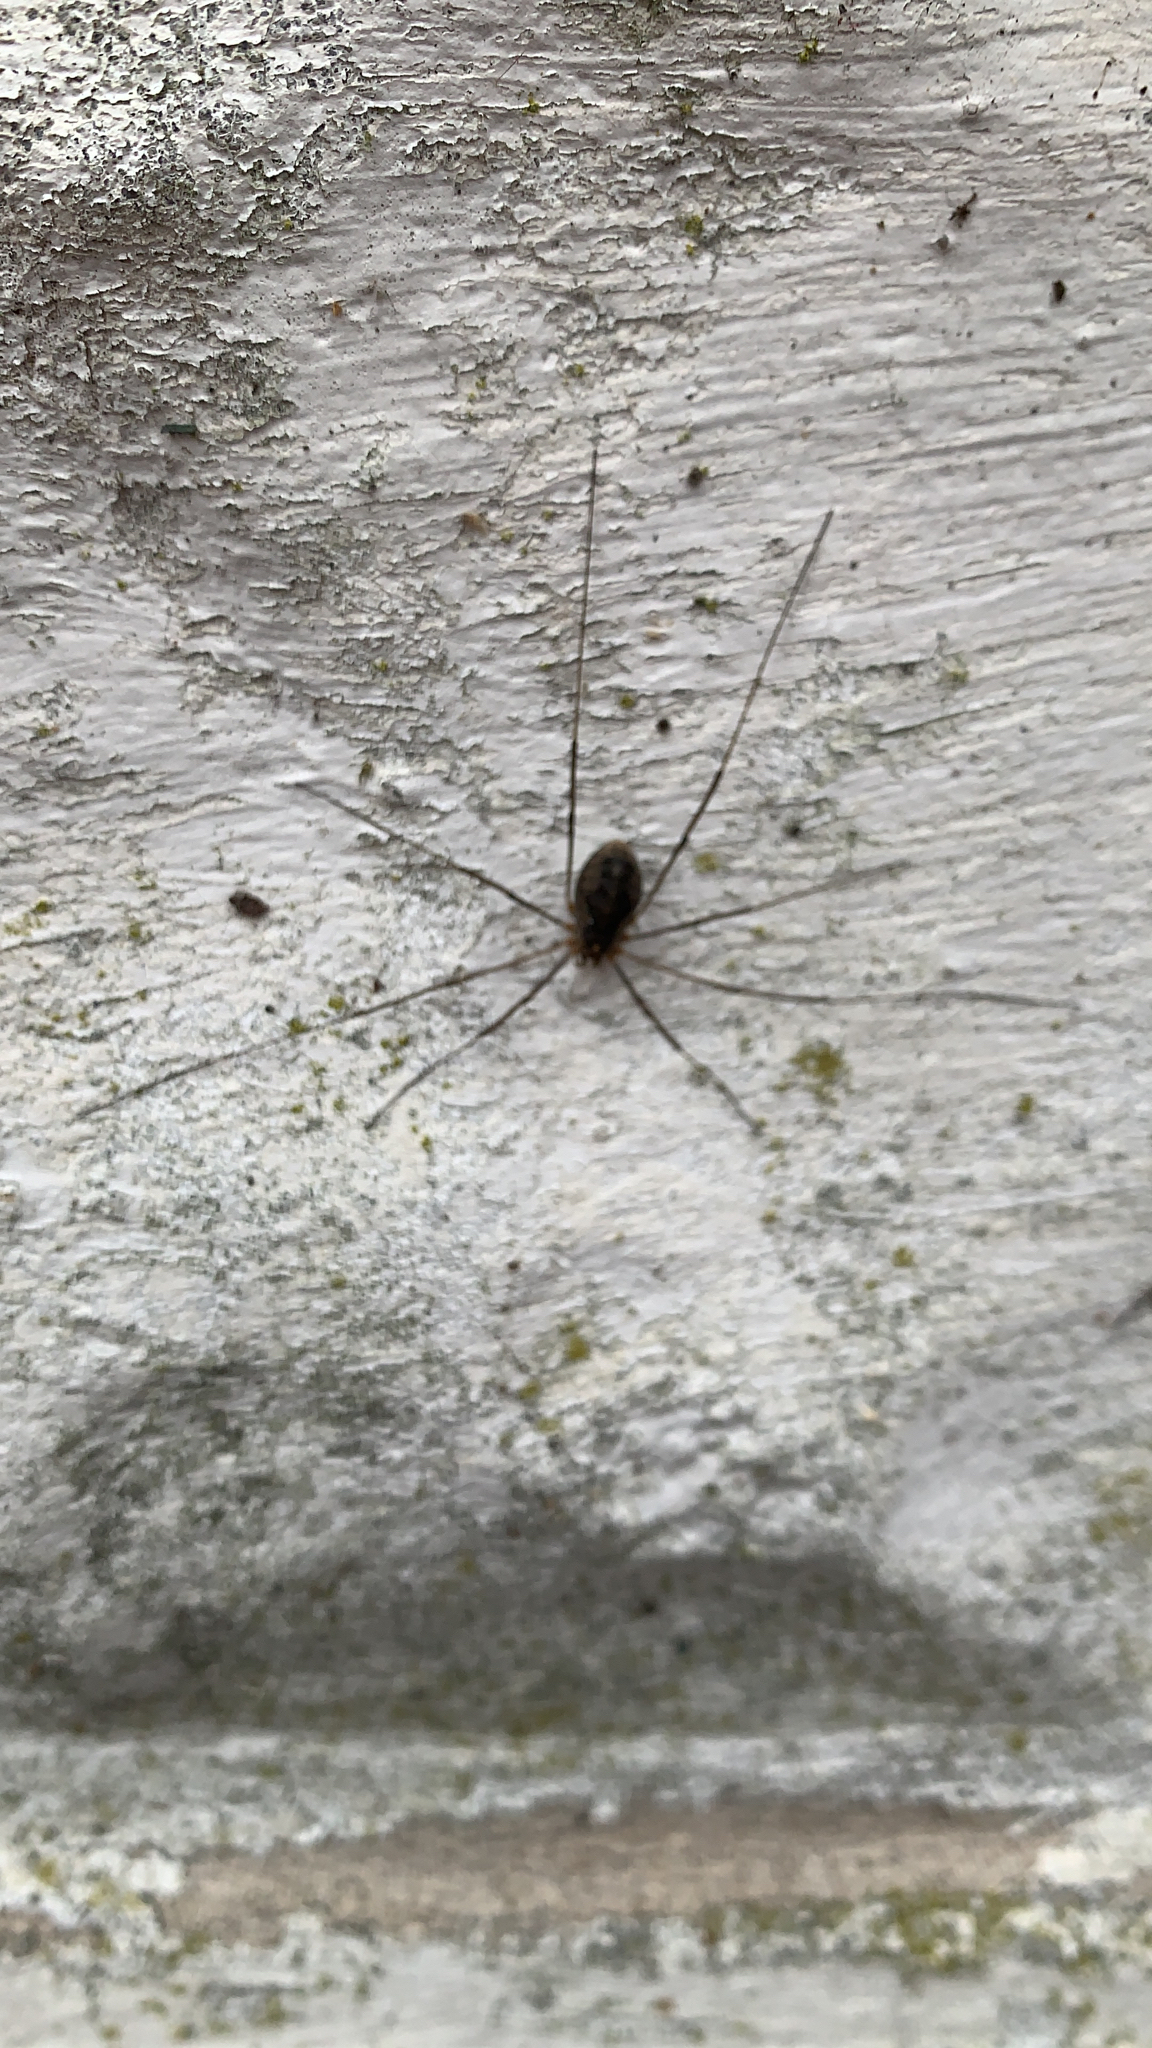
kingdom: Animalia
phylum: Arthropoda
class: Arachnida
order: Opiliones
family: Phalangiidae
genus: Phalangium
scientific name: Phalangium opilio
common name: Daddy longleg
